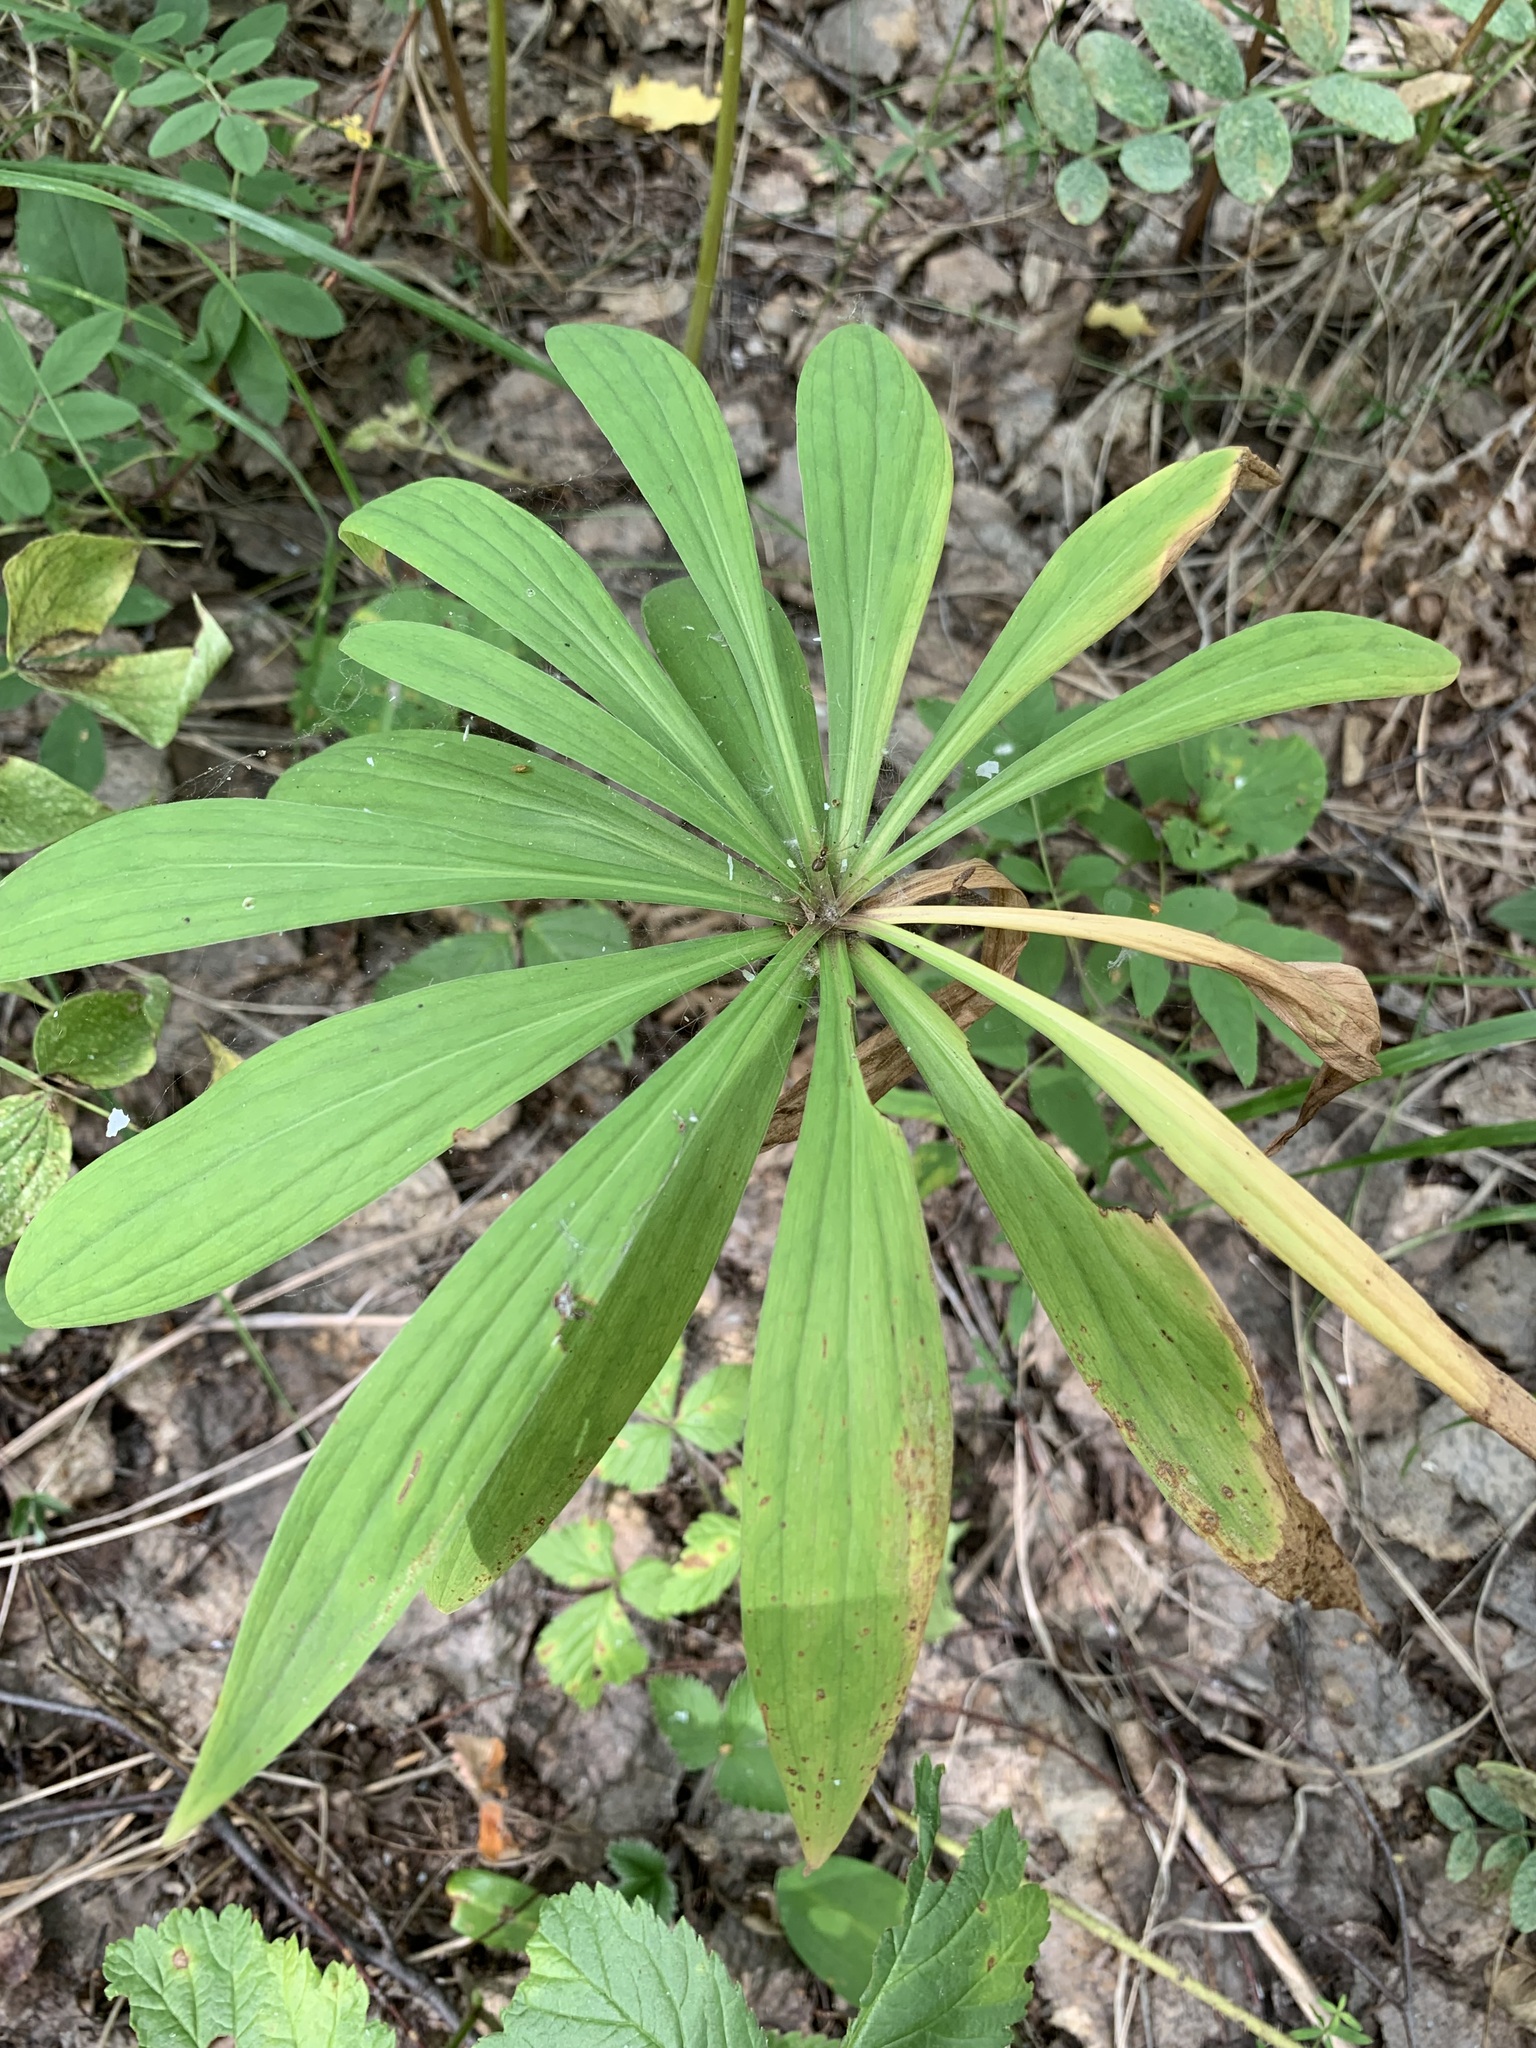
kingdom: Plantae
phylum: Tracheophyta
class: Liliopsida
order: Liliales
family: Liliaceae
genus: Lilium
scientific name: Lilium martagon
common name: Martagon lily
